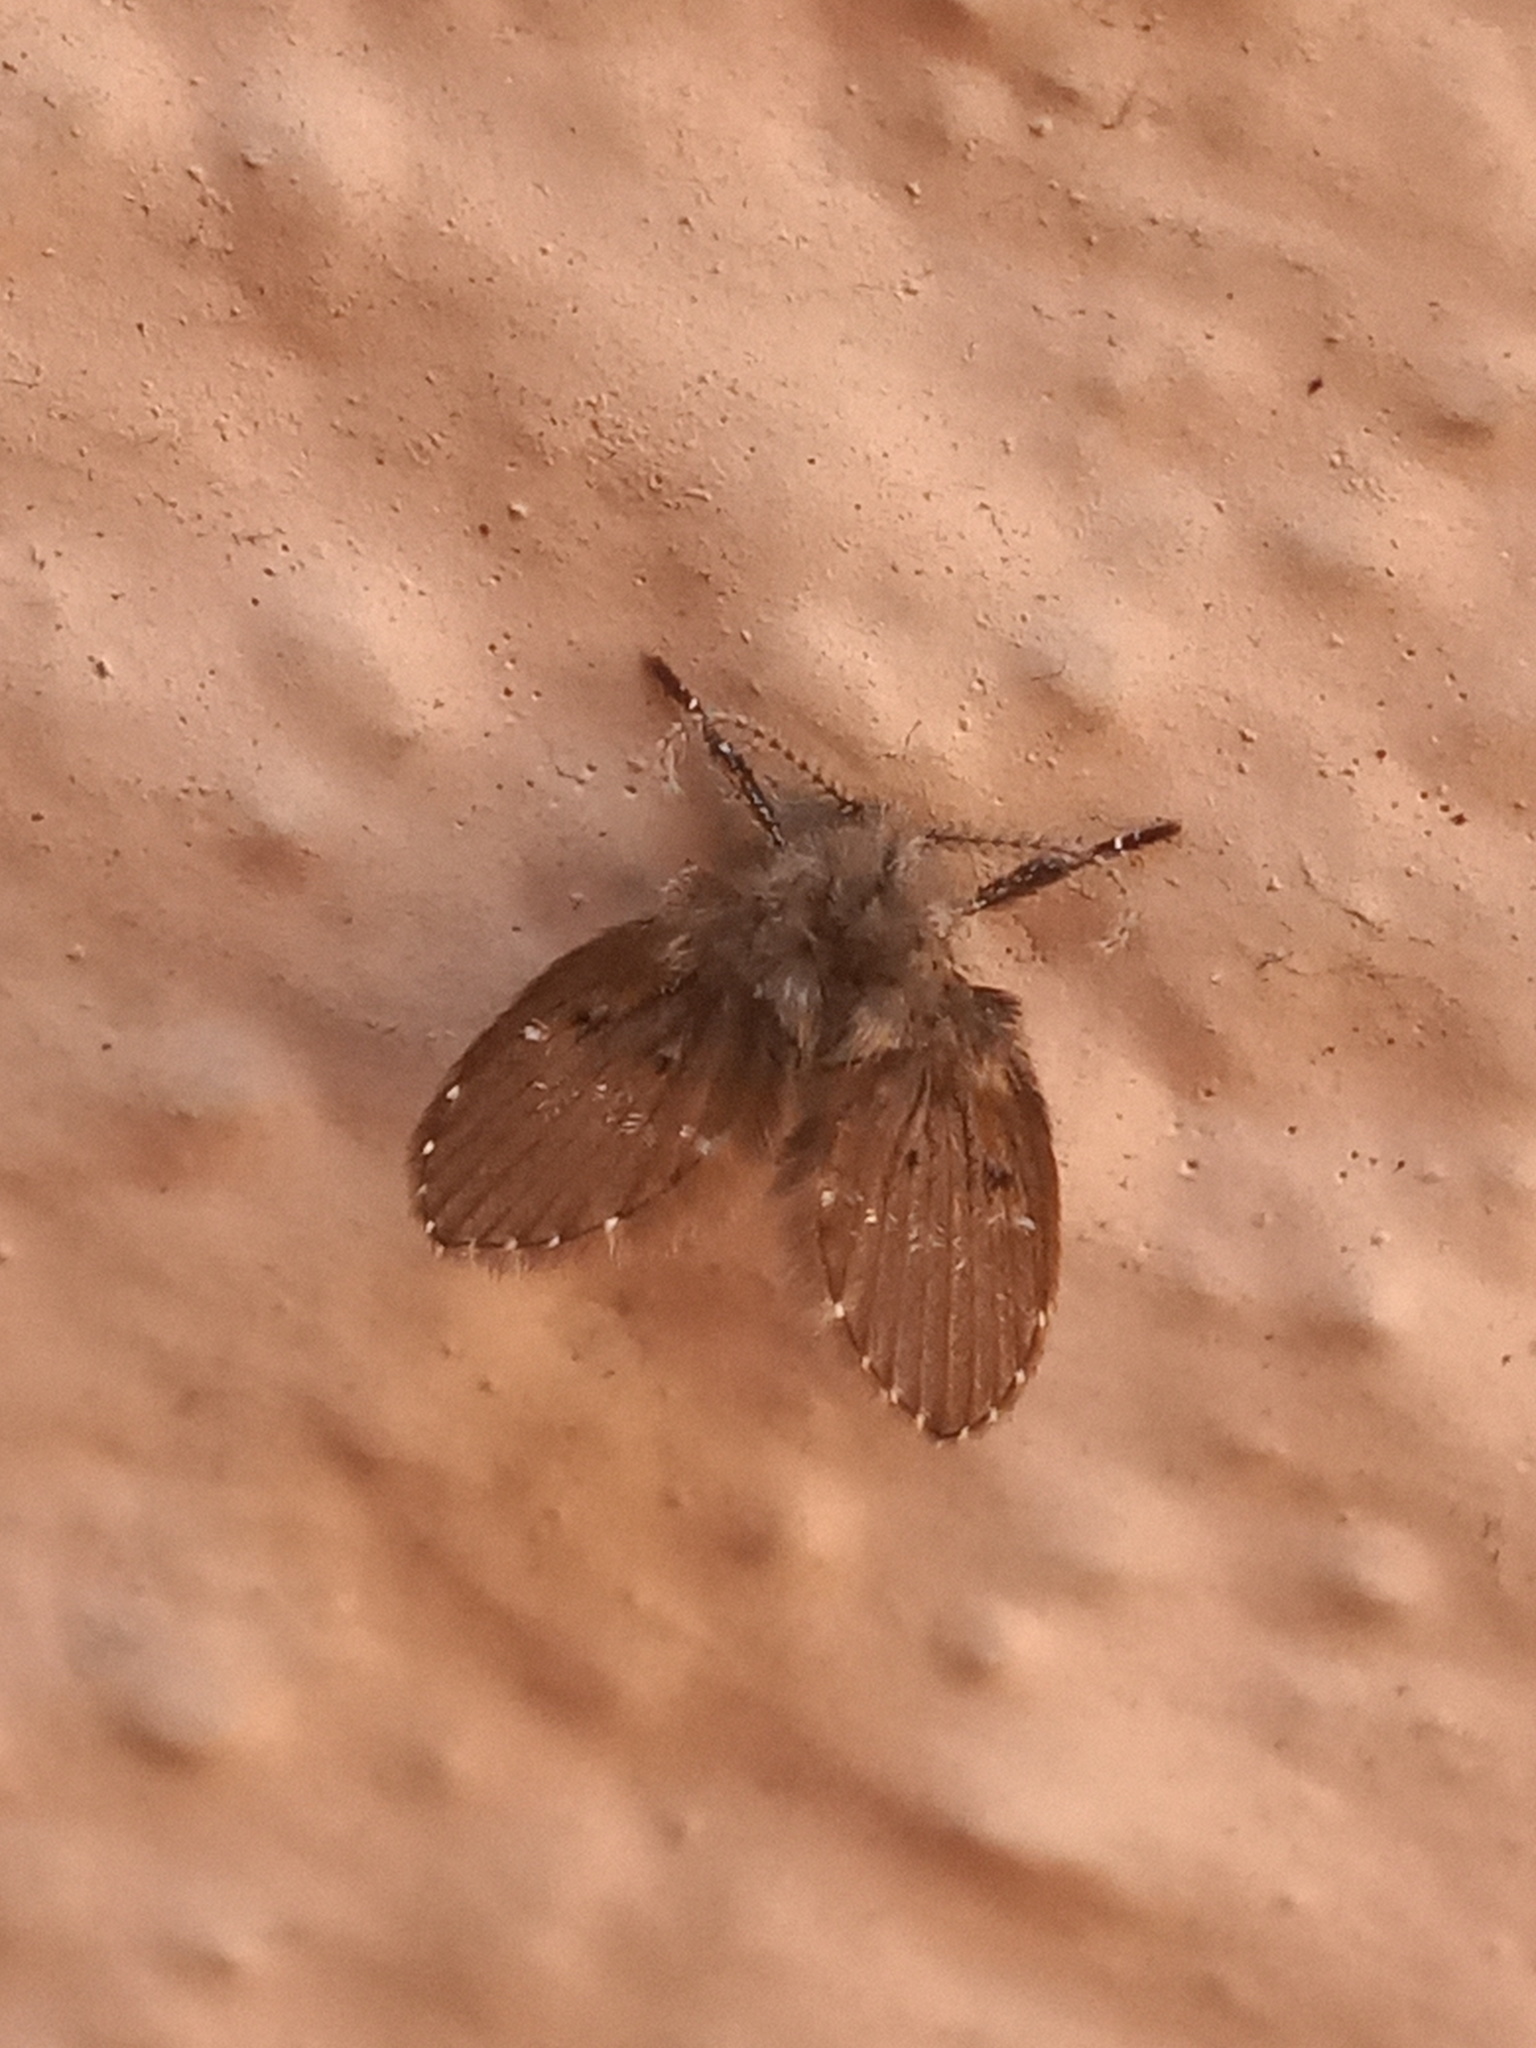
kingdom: Animalia
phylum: Arthropoda
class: Insecta
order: Diptera
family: Psychodidae
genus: Clogmia
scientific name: Clogmia albipunctatus
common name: White-spotted moth fly
